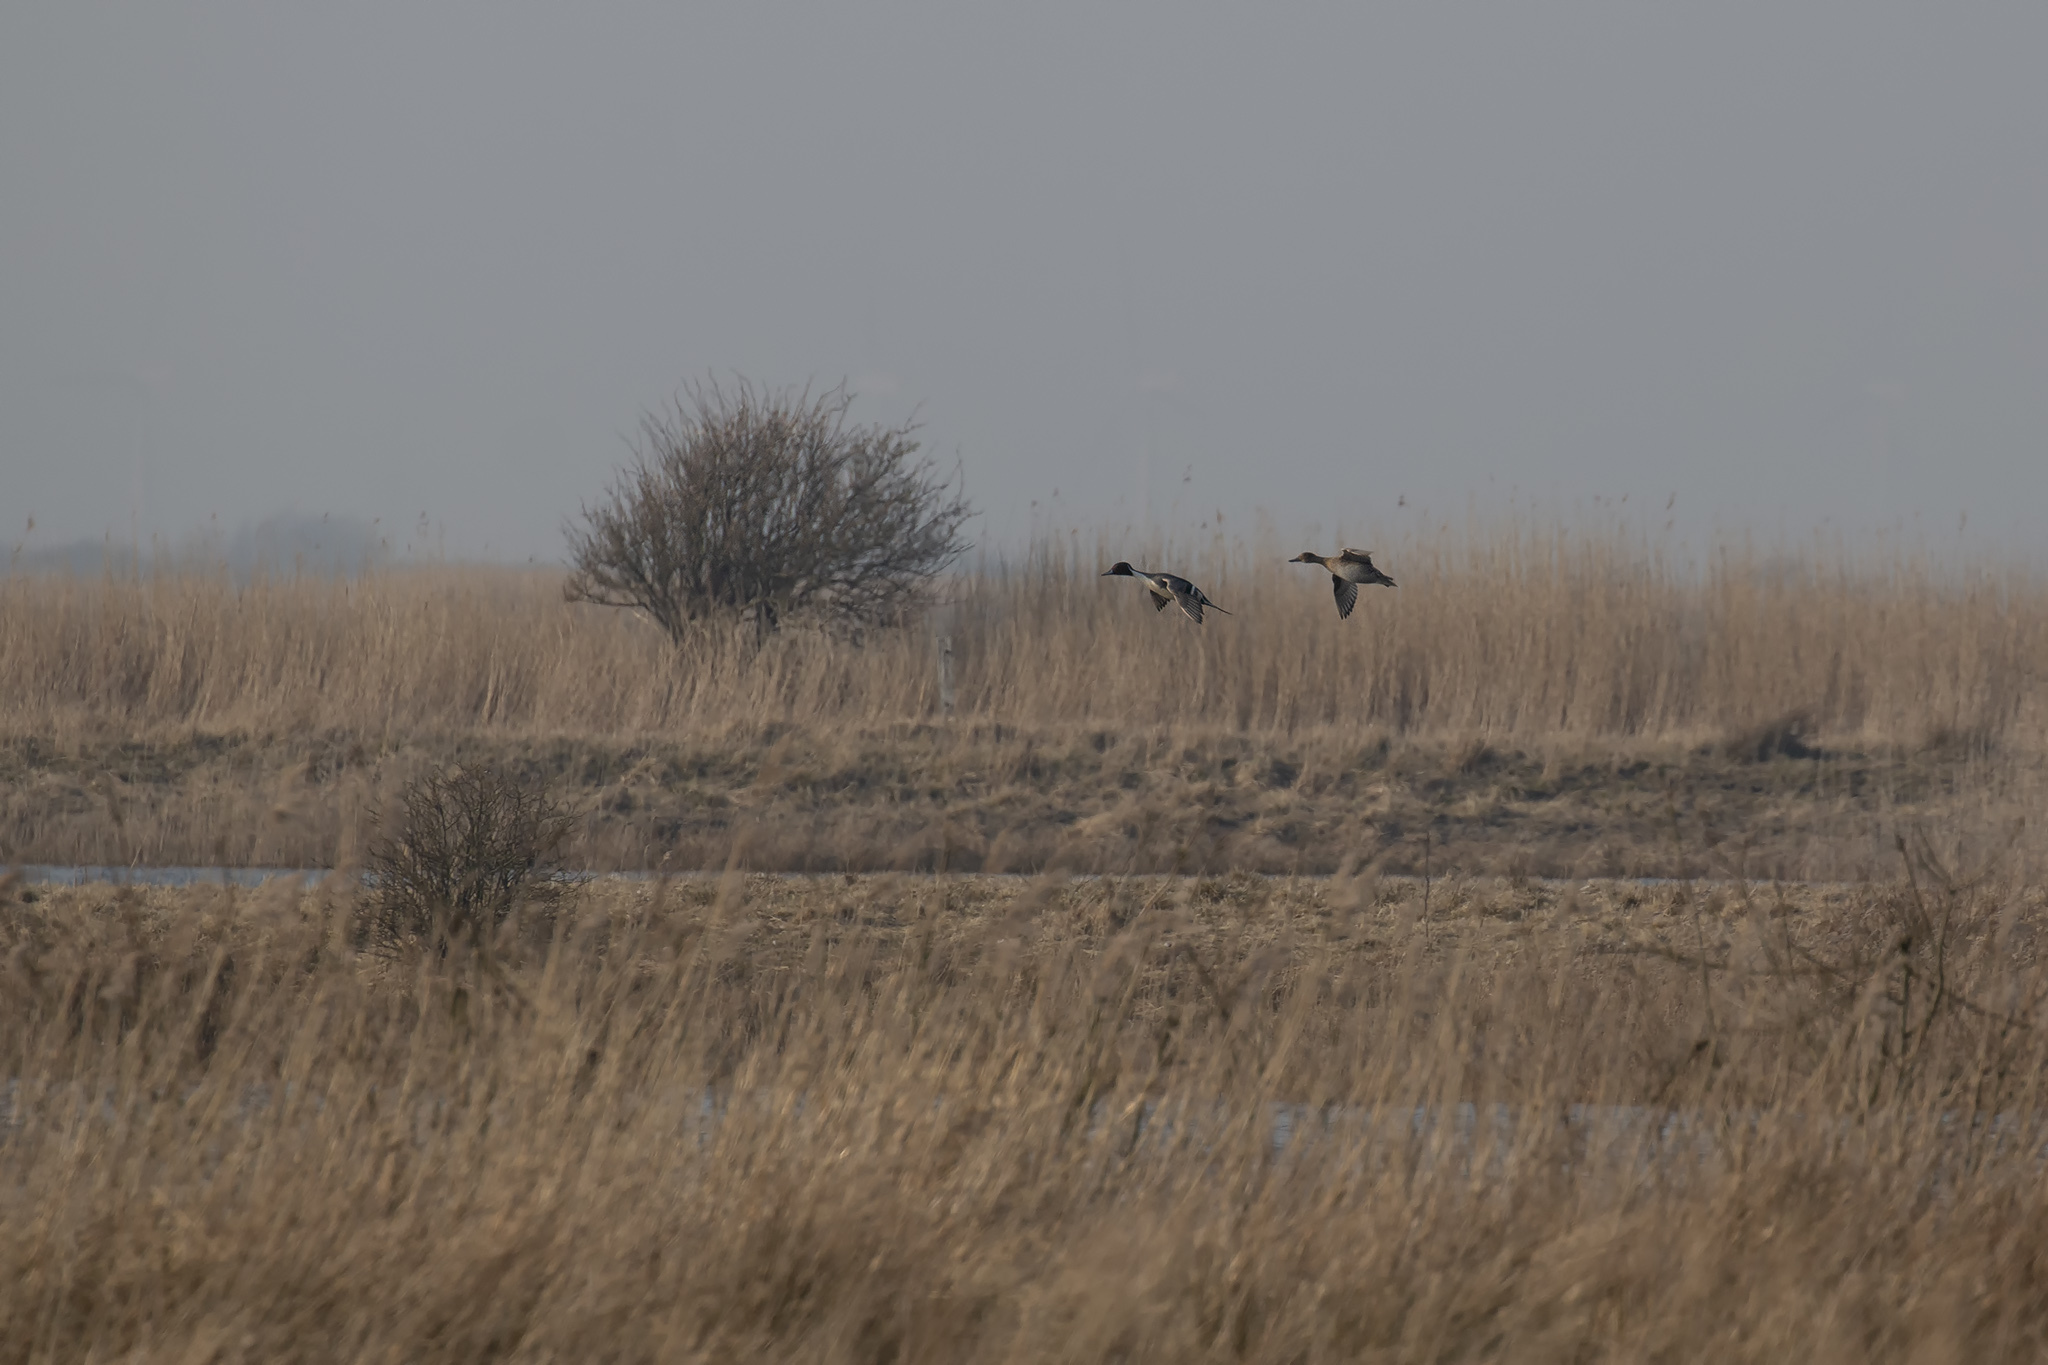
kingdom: Animalia
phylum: Chordata
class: Aves
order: Anseriformes
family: Anatidae
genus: Anas
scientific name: Anas acuta
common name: Northern pintail
